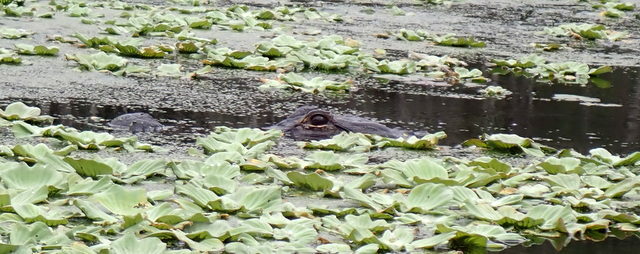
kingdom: Animalia
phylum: Chordata
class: Crocodylia
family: Alligatoridae
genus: Alligator
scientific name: Alligator mississippiensis
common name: American alligator
